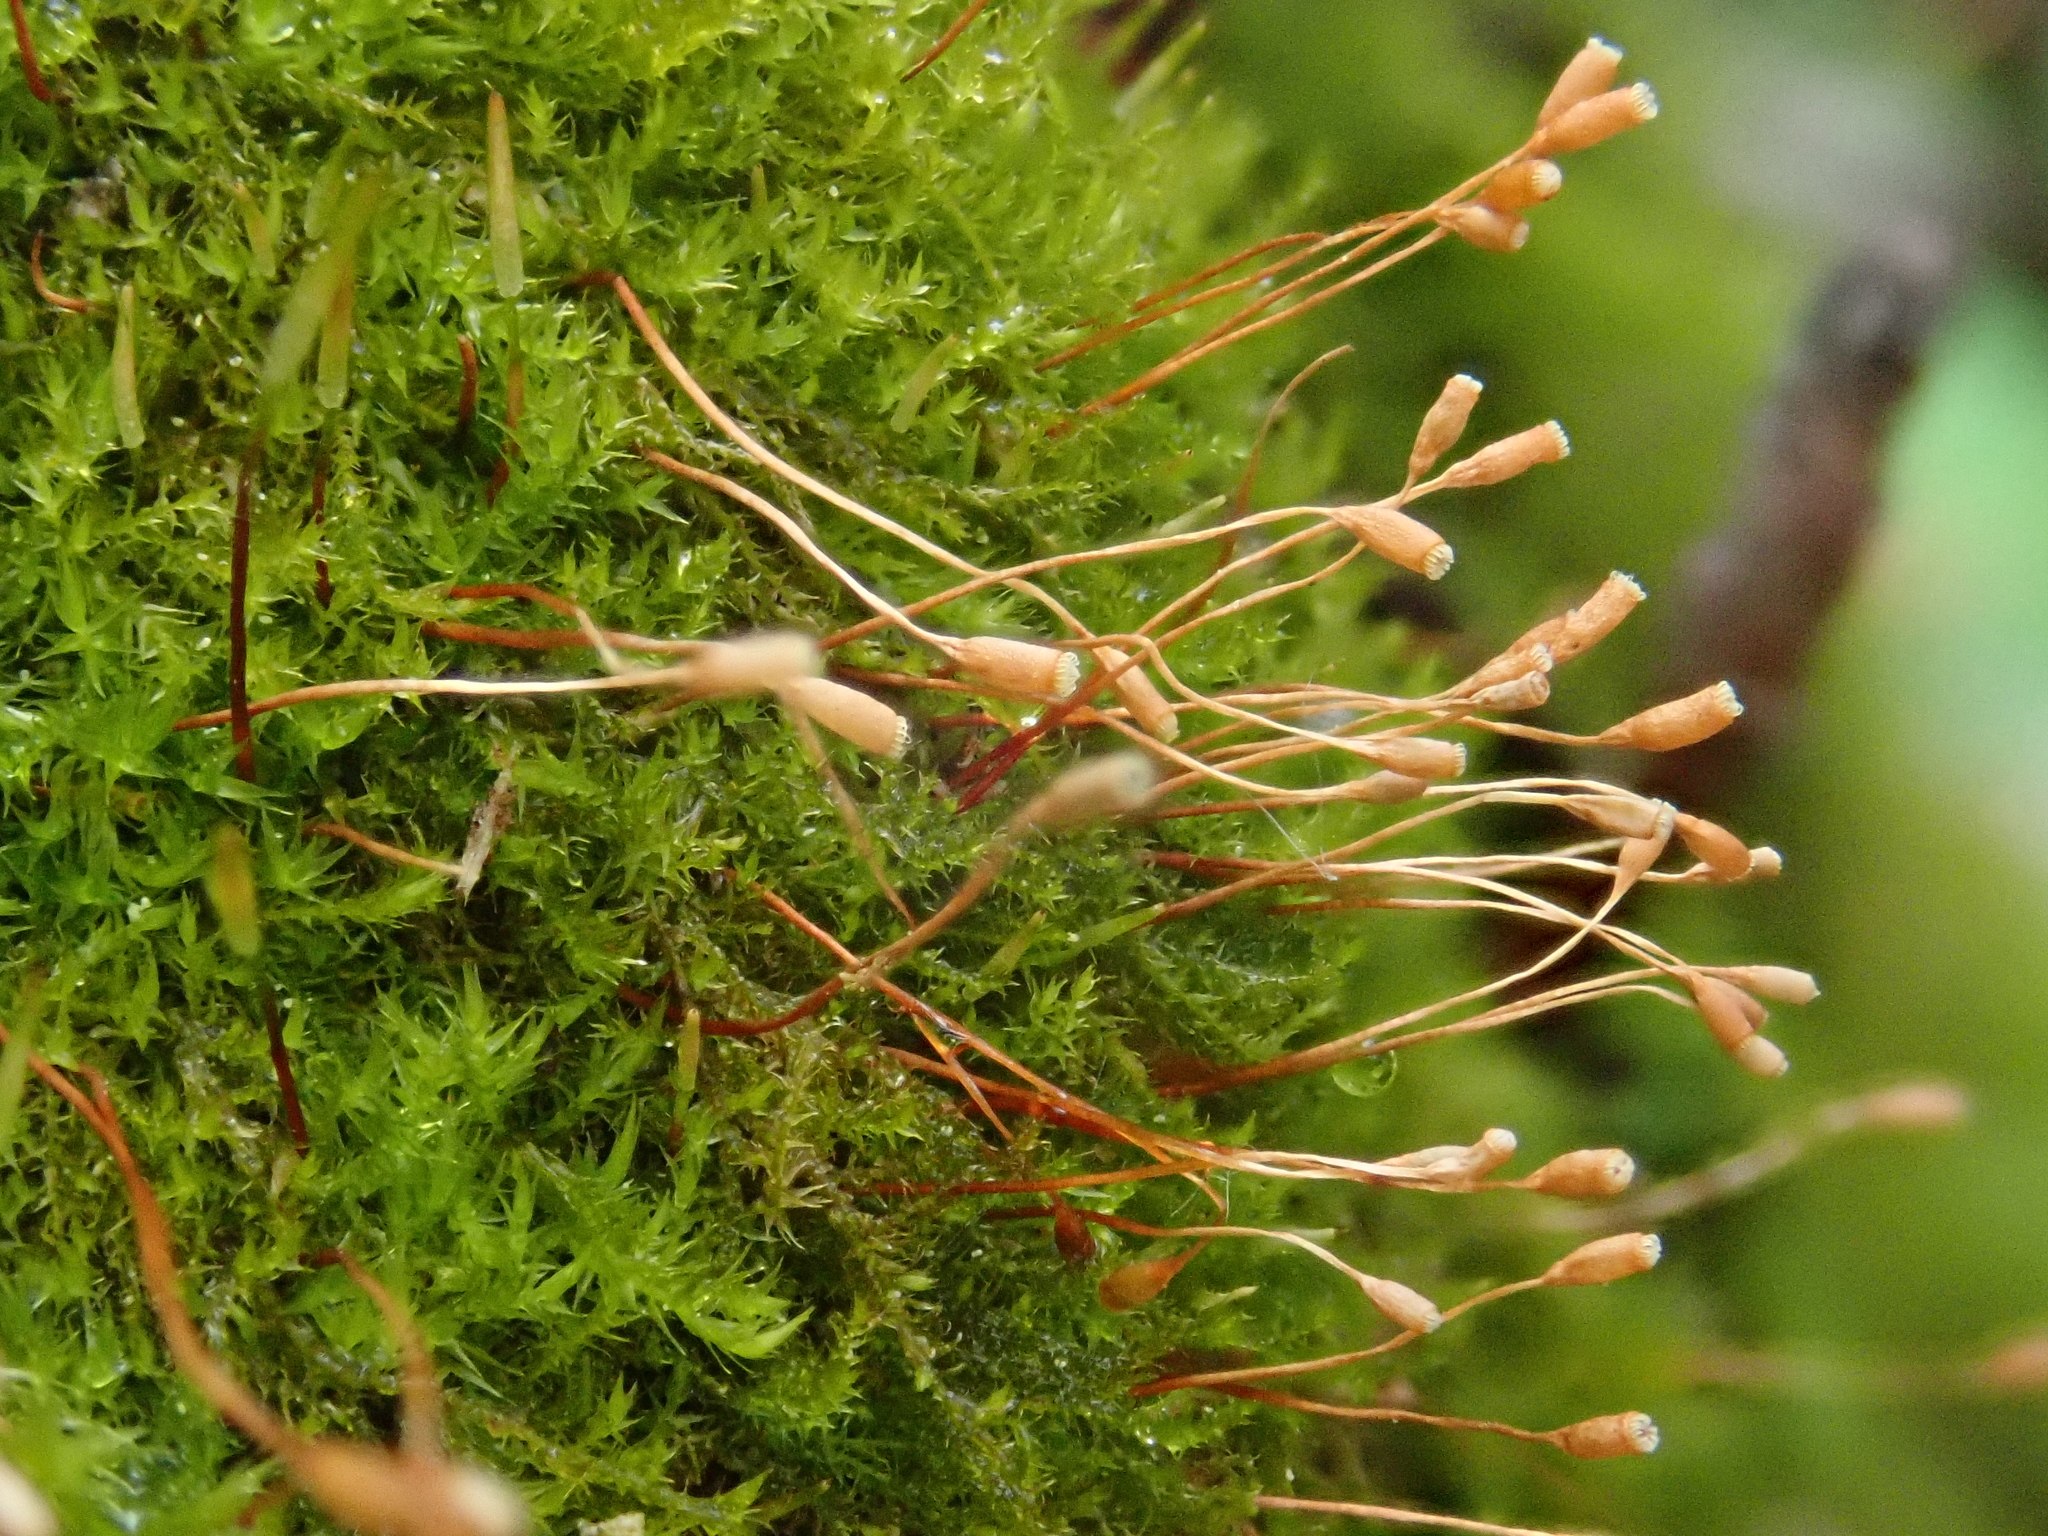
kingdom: Plantae
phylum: Bryophyta
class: Bryopsida
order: Hypnales
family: Amblystegiaceae
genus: Pseudoamblystegium
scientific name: Pseudoamblystegium subtile
